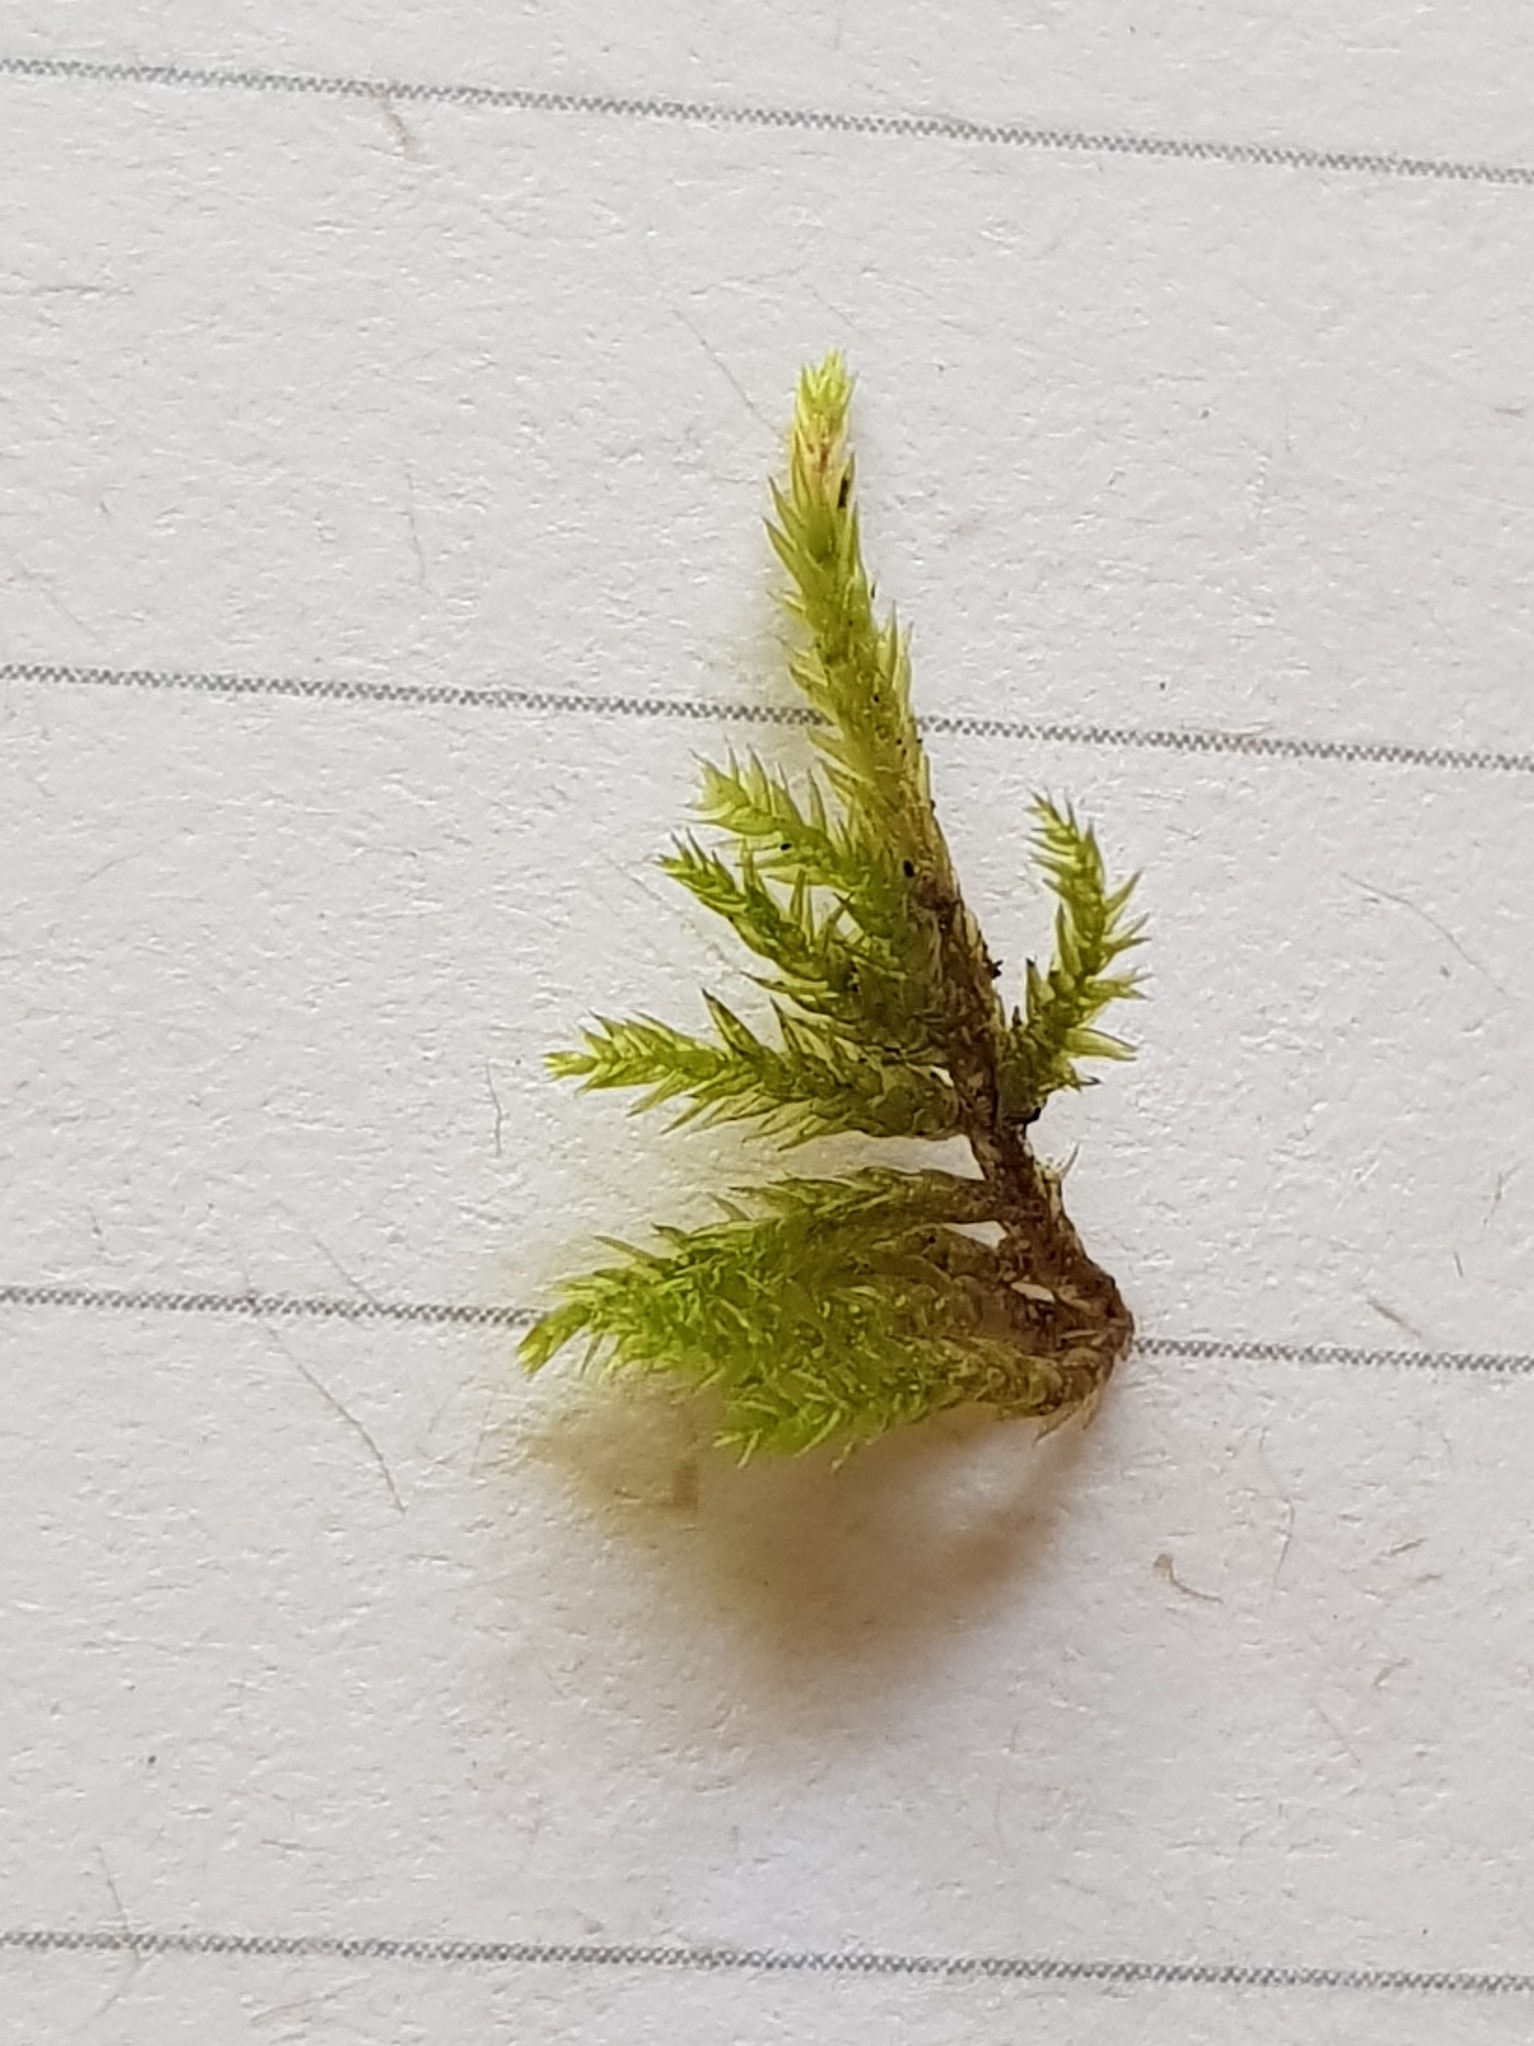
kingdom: Plantae
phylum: Bryophyta
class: Bryopsida
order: Hypnales
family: Brachytheciaceae
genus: Brachythecium
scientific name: Brachythecium rivulare
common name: River ragged moss
